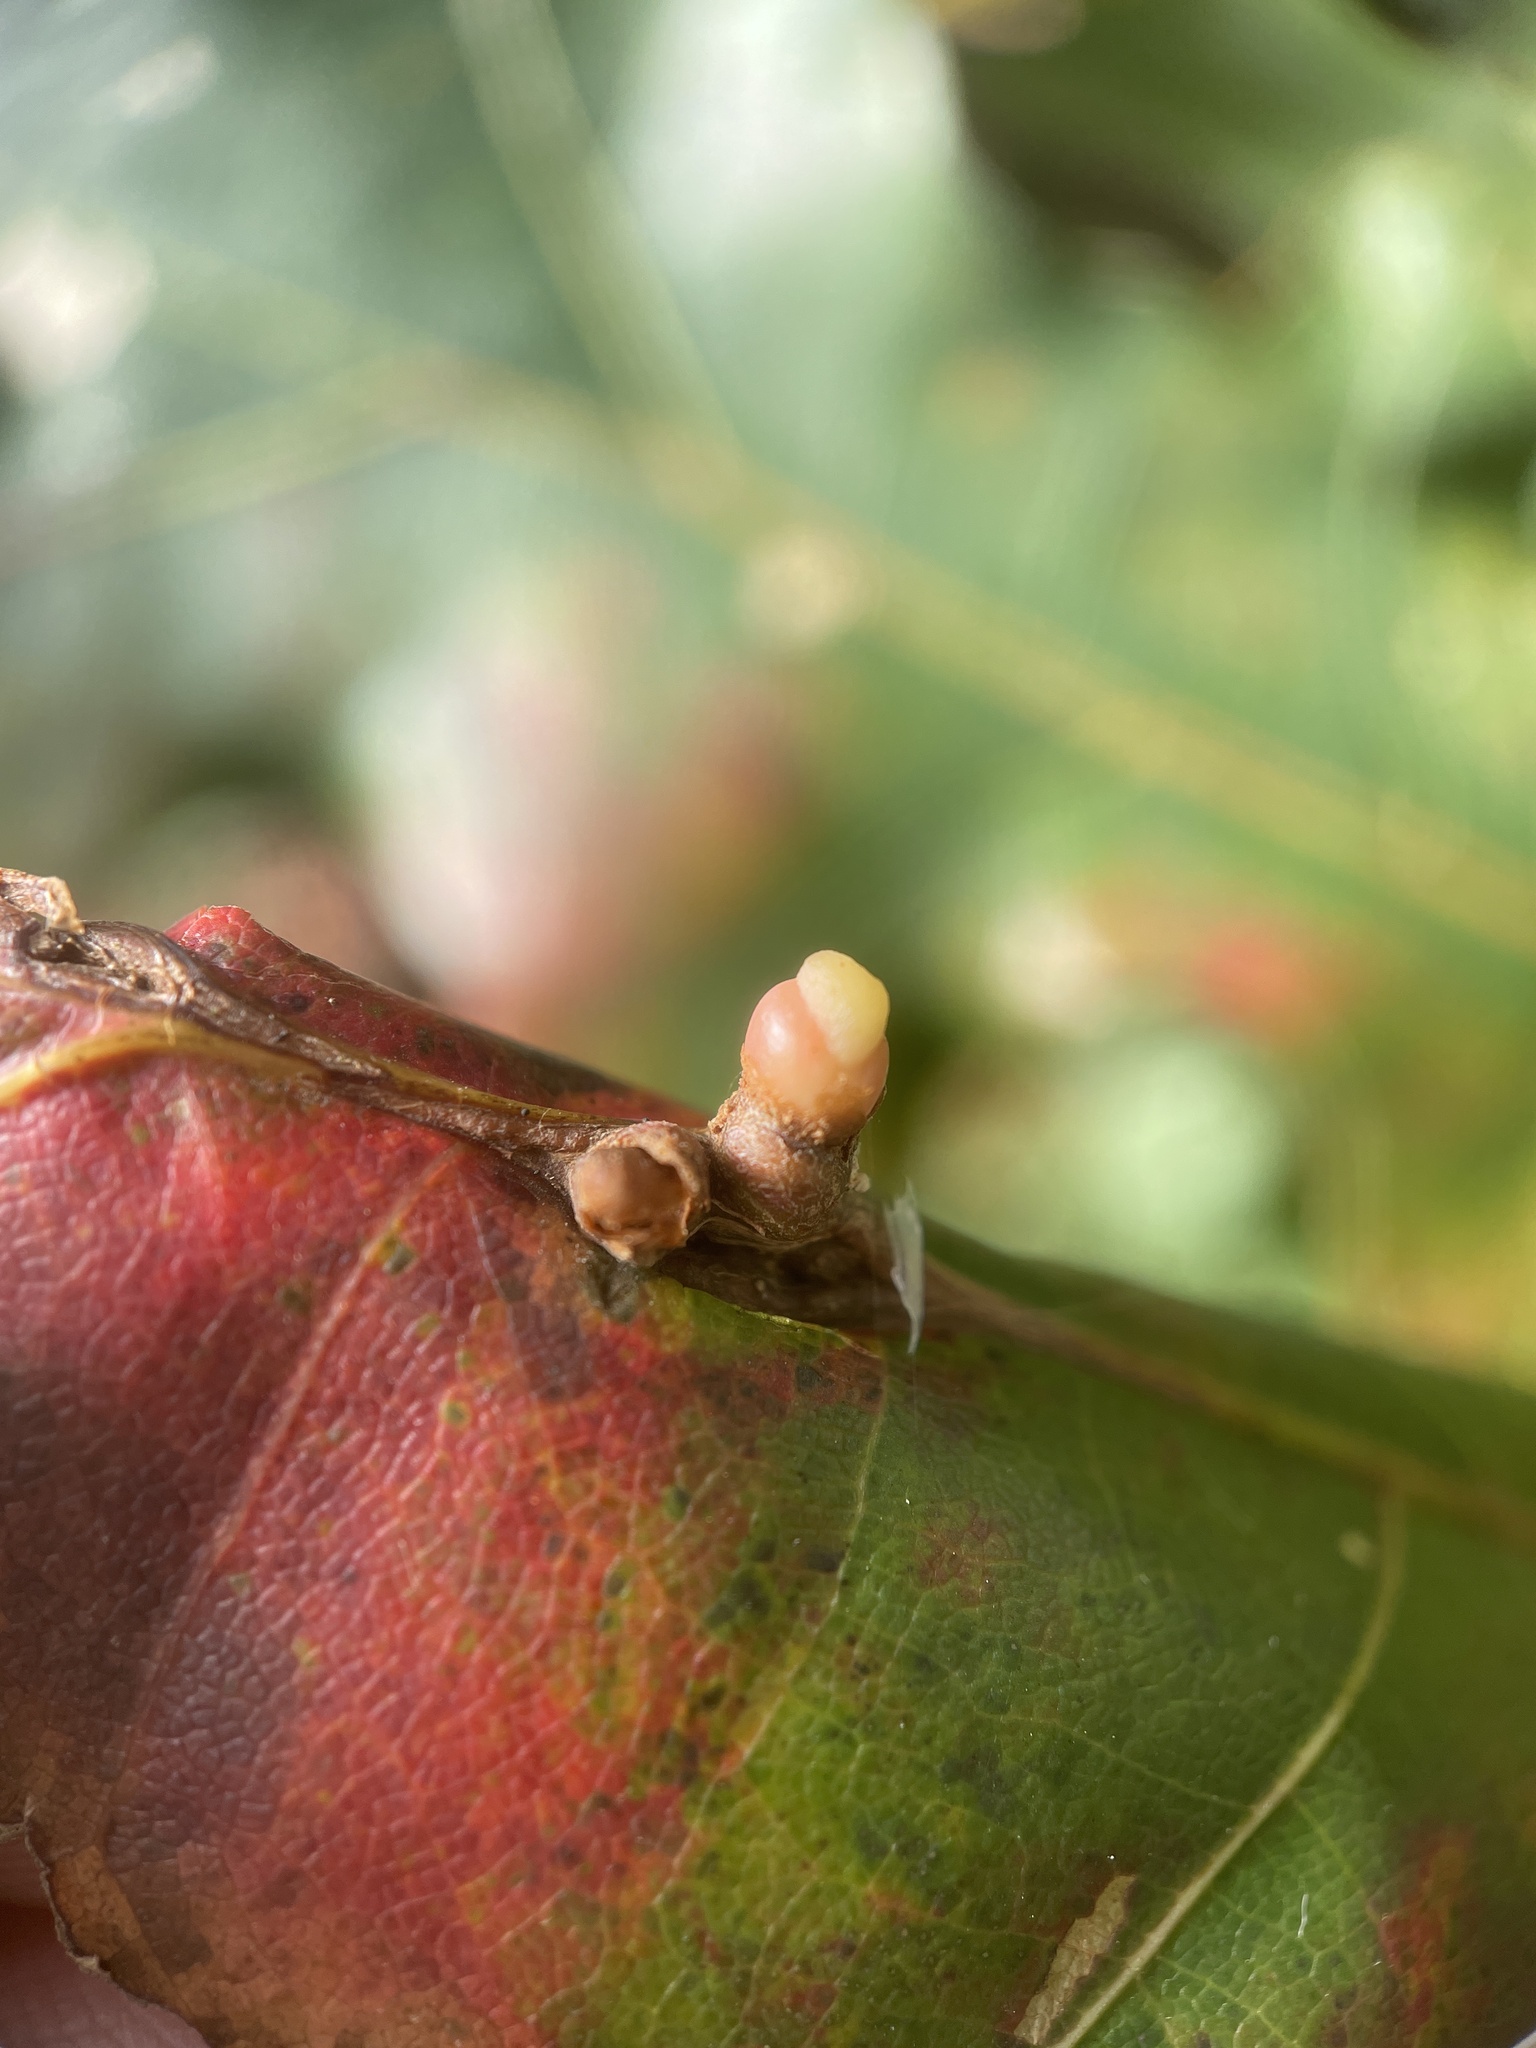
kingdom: Animalia
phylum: Arthropoda
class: Insecta
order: Hymenoptera
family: Cynipidae
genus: Kokkocynips
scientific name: Kokkocynips decidua
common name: Oak wheat gall
